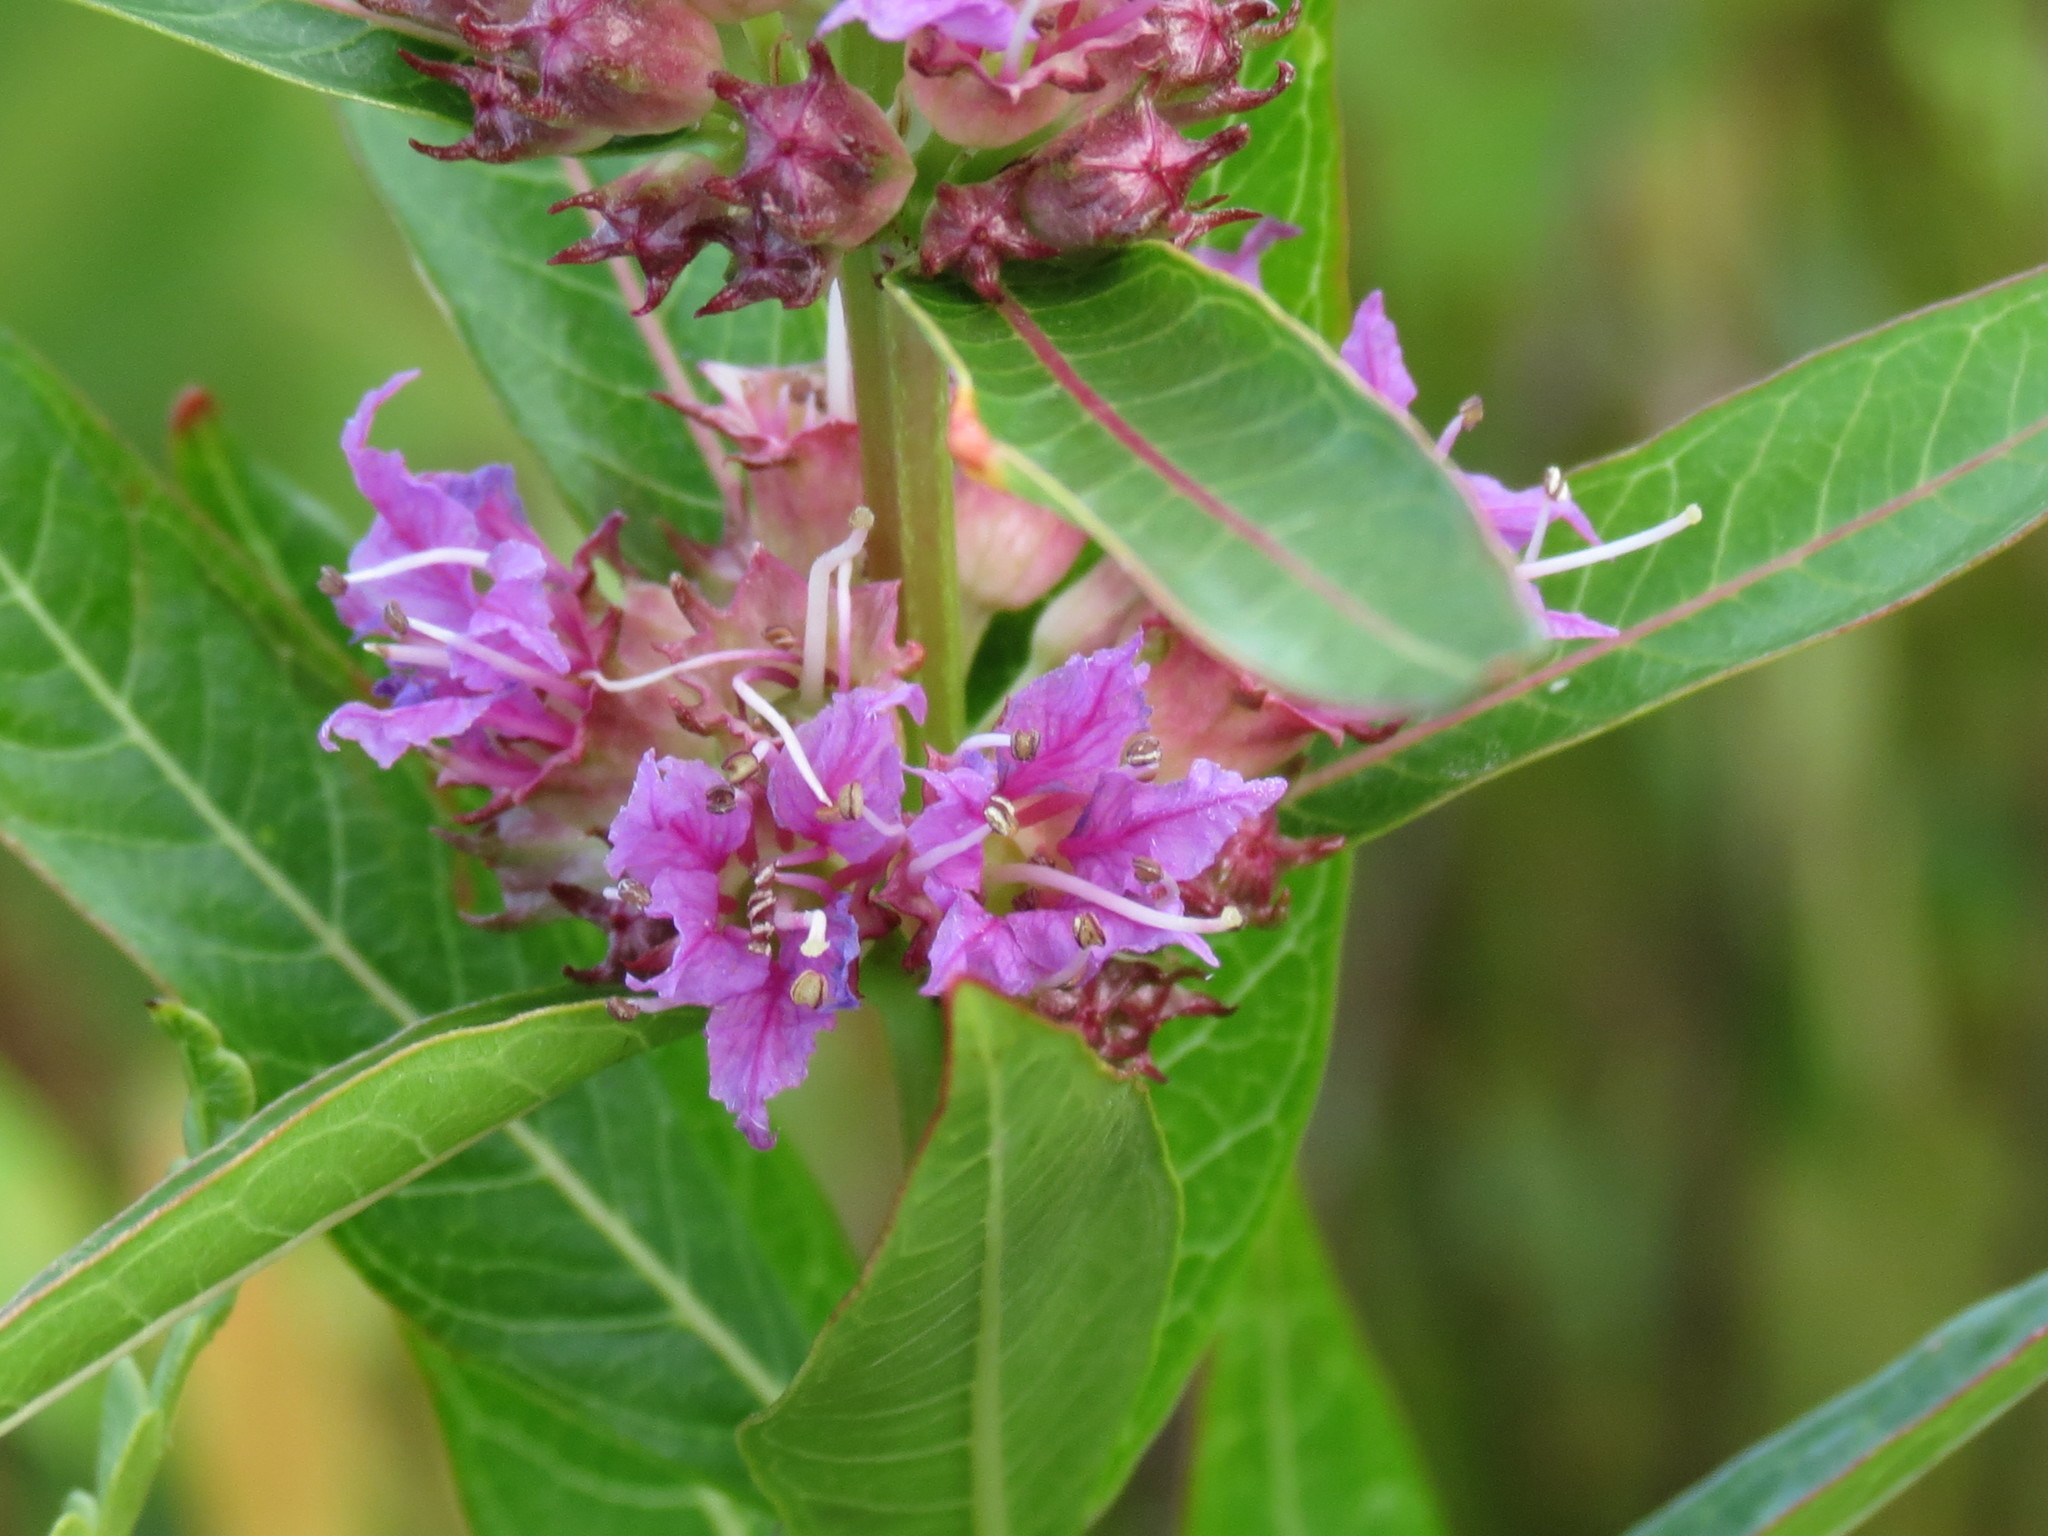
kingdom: Plantae
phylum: Tracheophyta
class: Magnoliopsida
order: Myrtales
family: Lythraceae
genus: Decodon
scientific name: Decodon verticillatus
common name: Hairy swamp loosestrife
